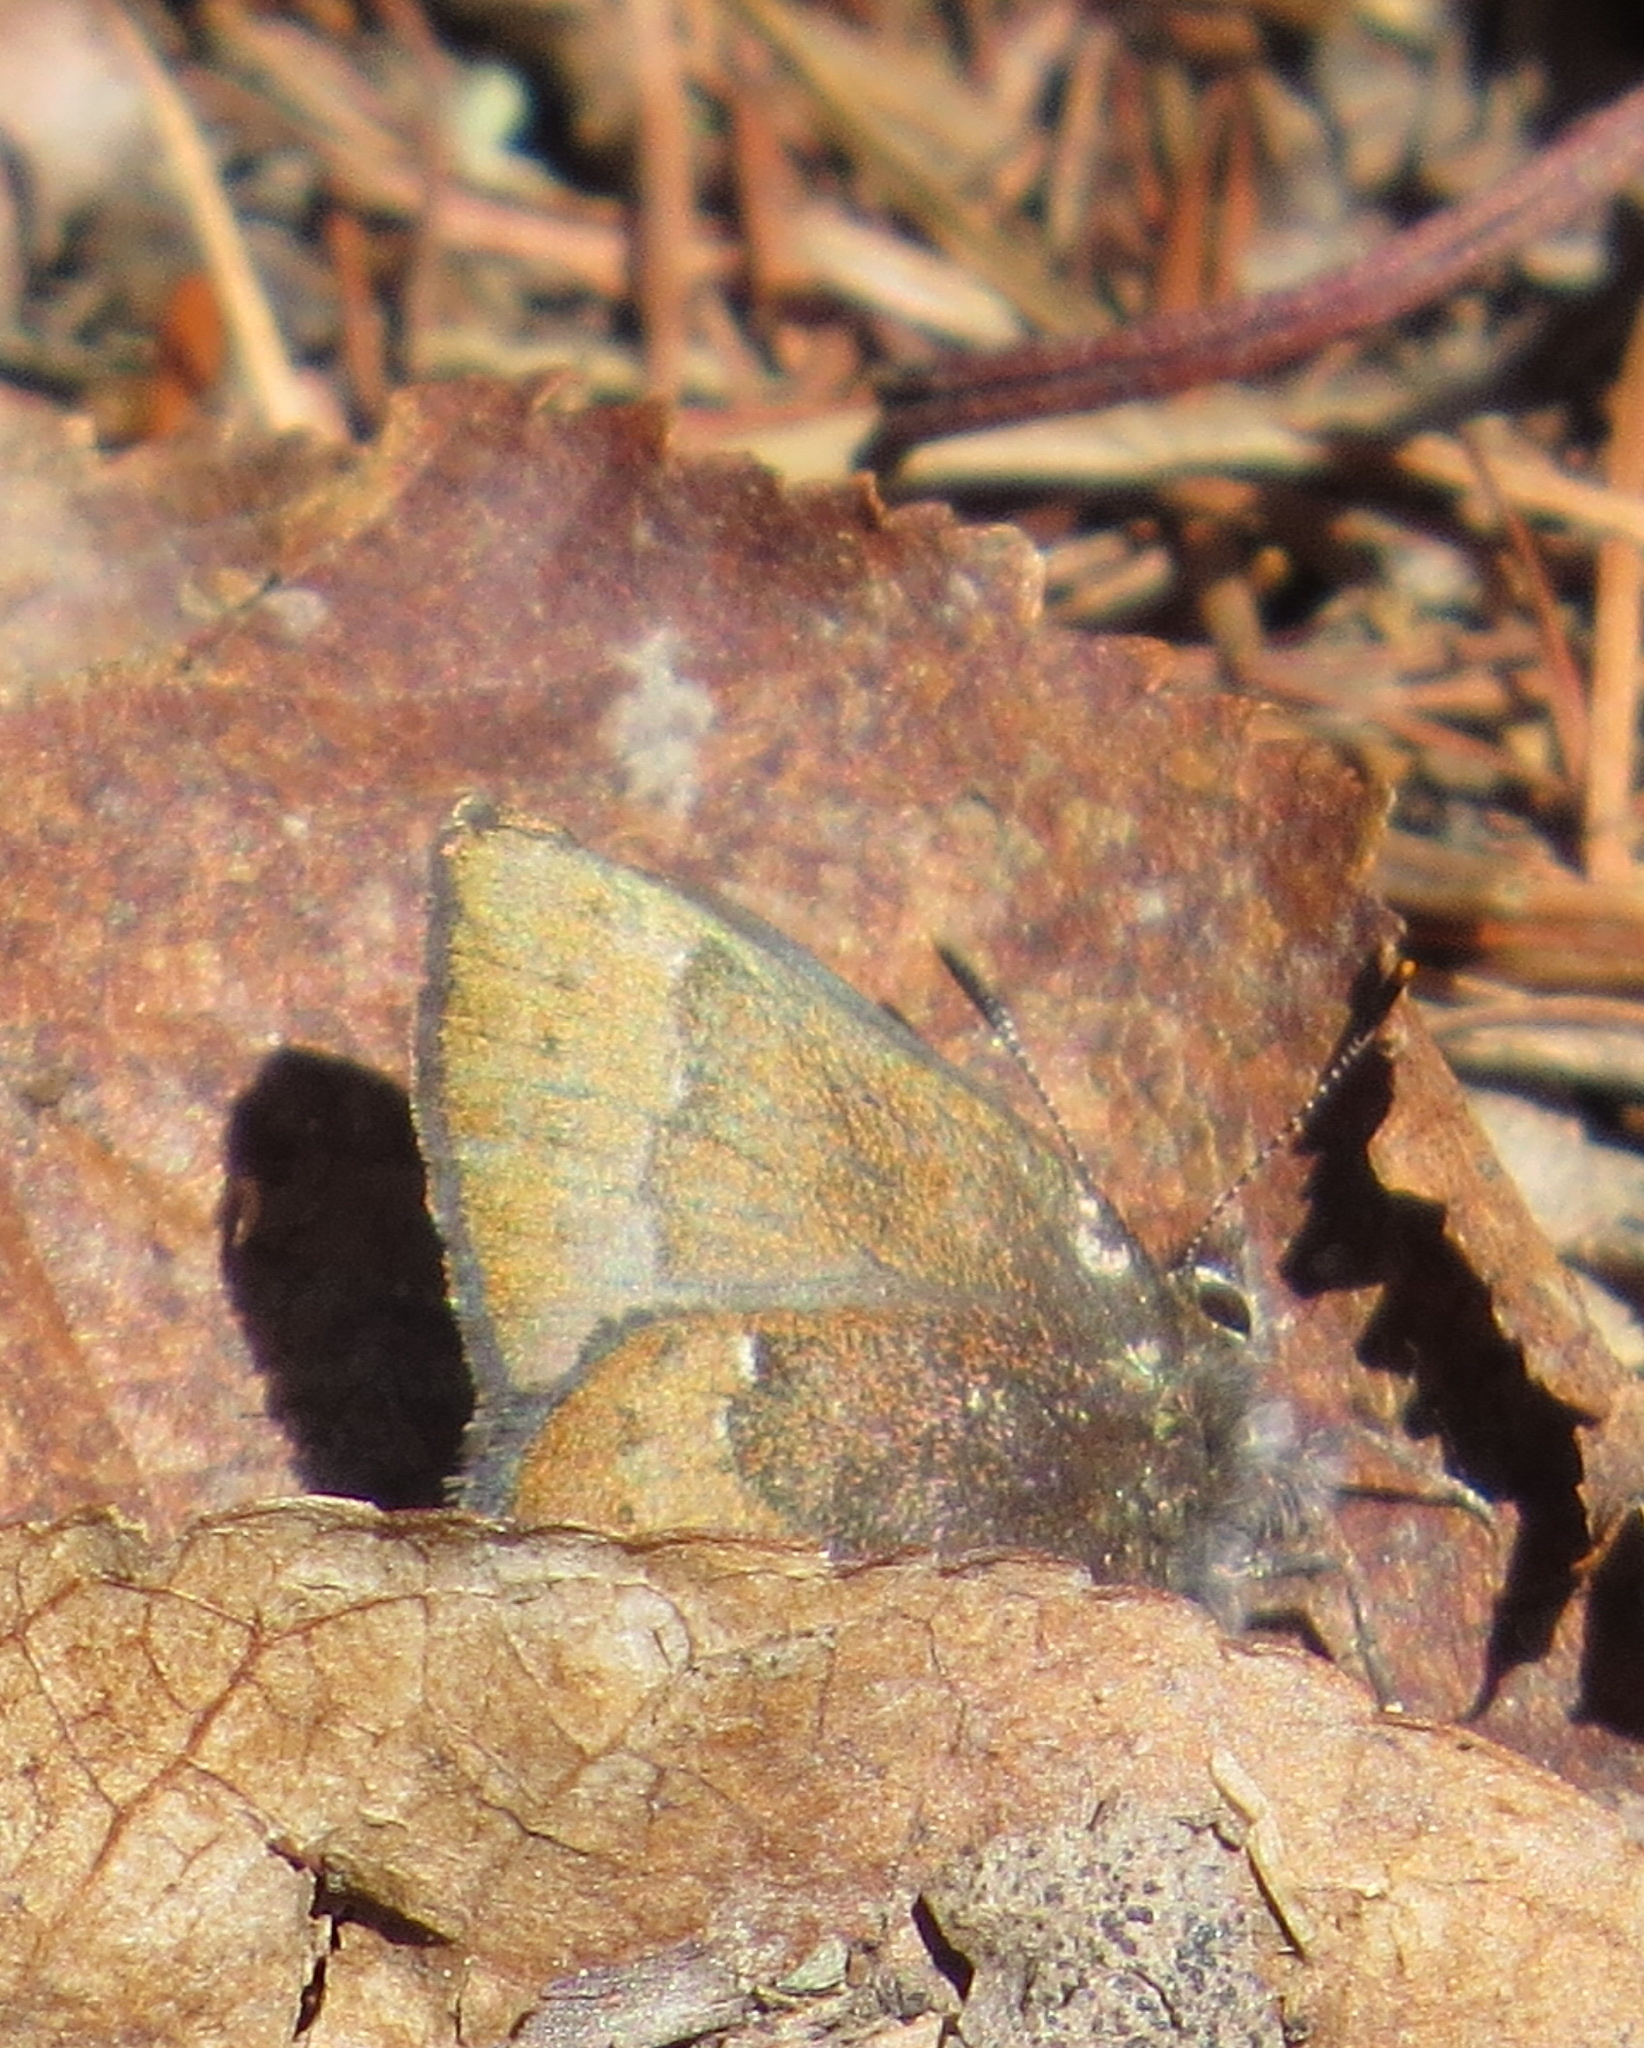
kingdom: Animalia
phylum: Arthropoda
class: Insecta
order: Lepidoptera
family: Lycaenidae
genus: Incisalia
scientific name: Incisalia irioides
